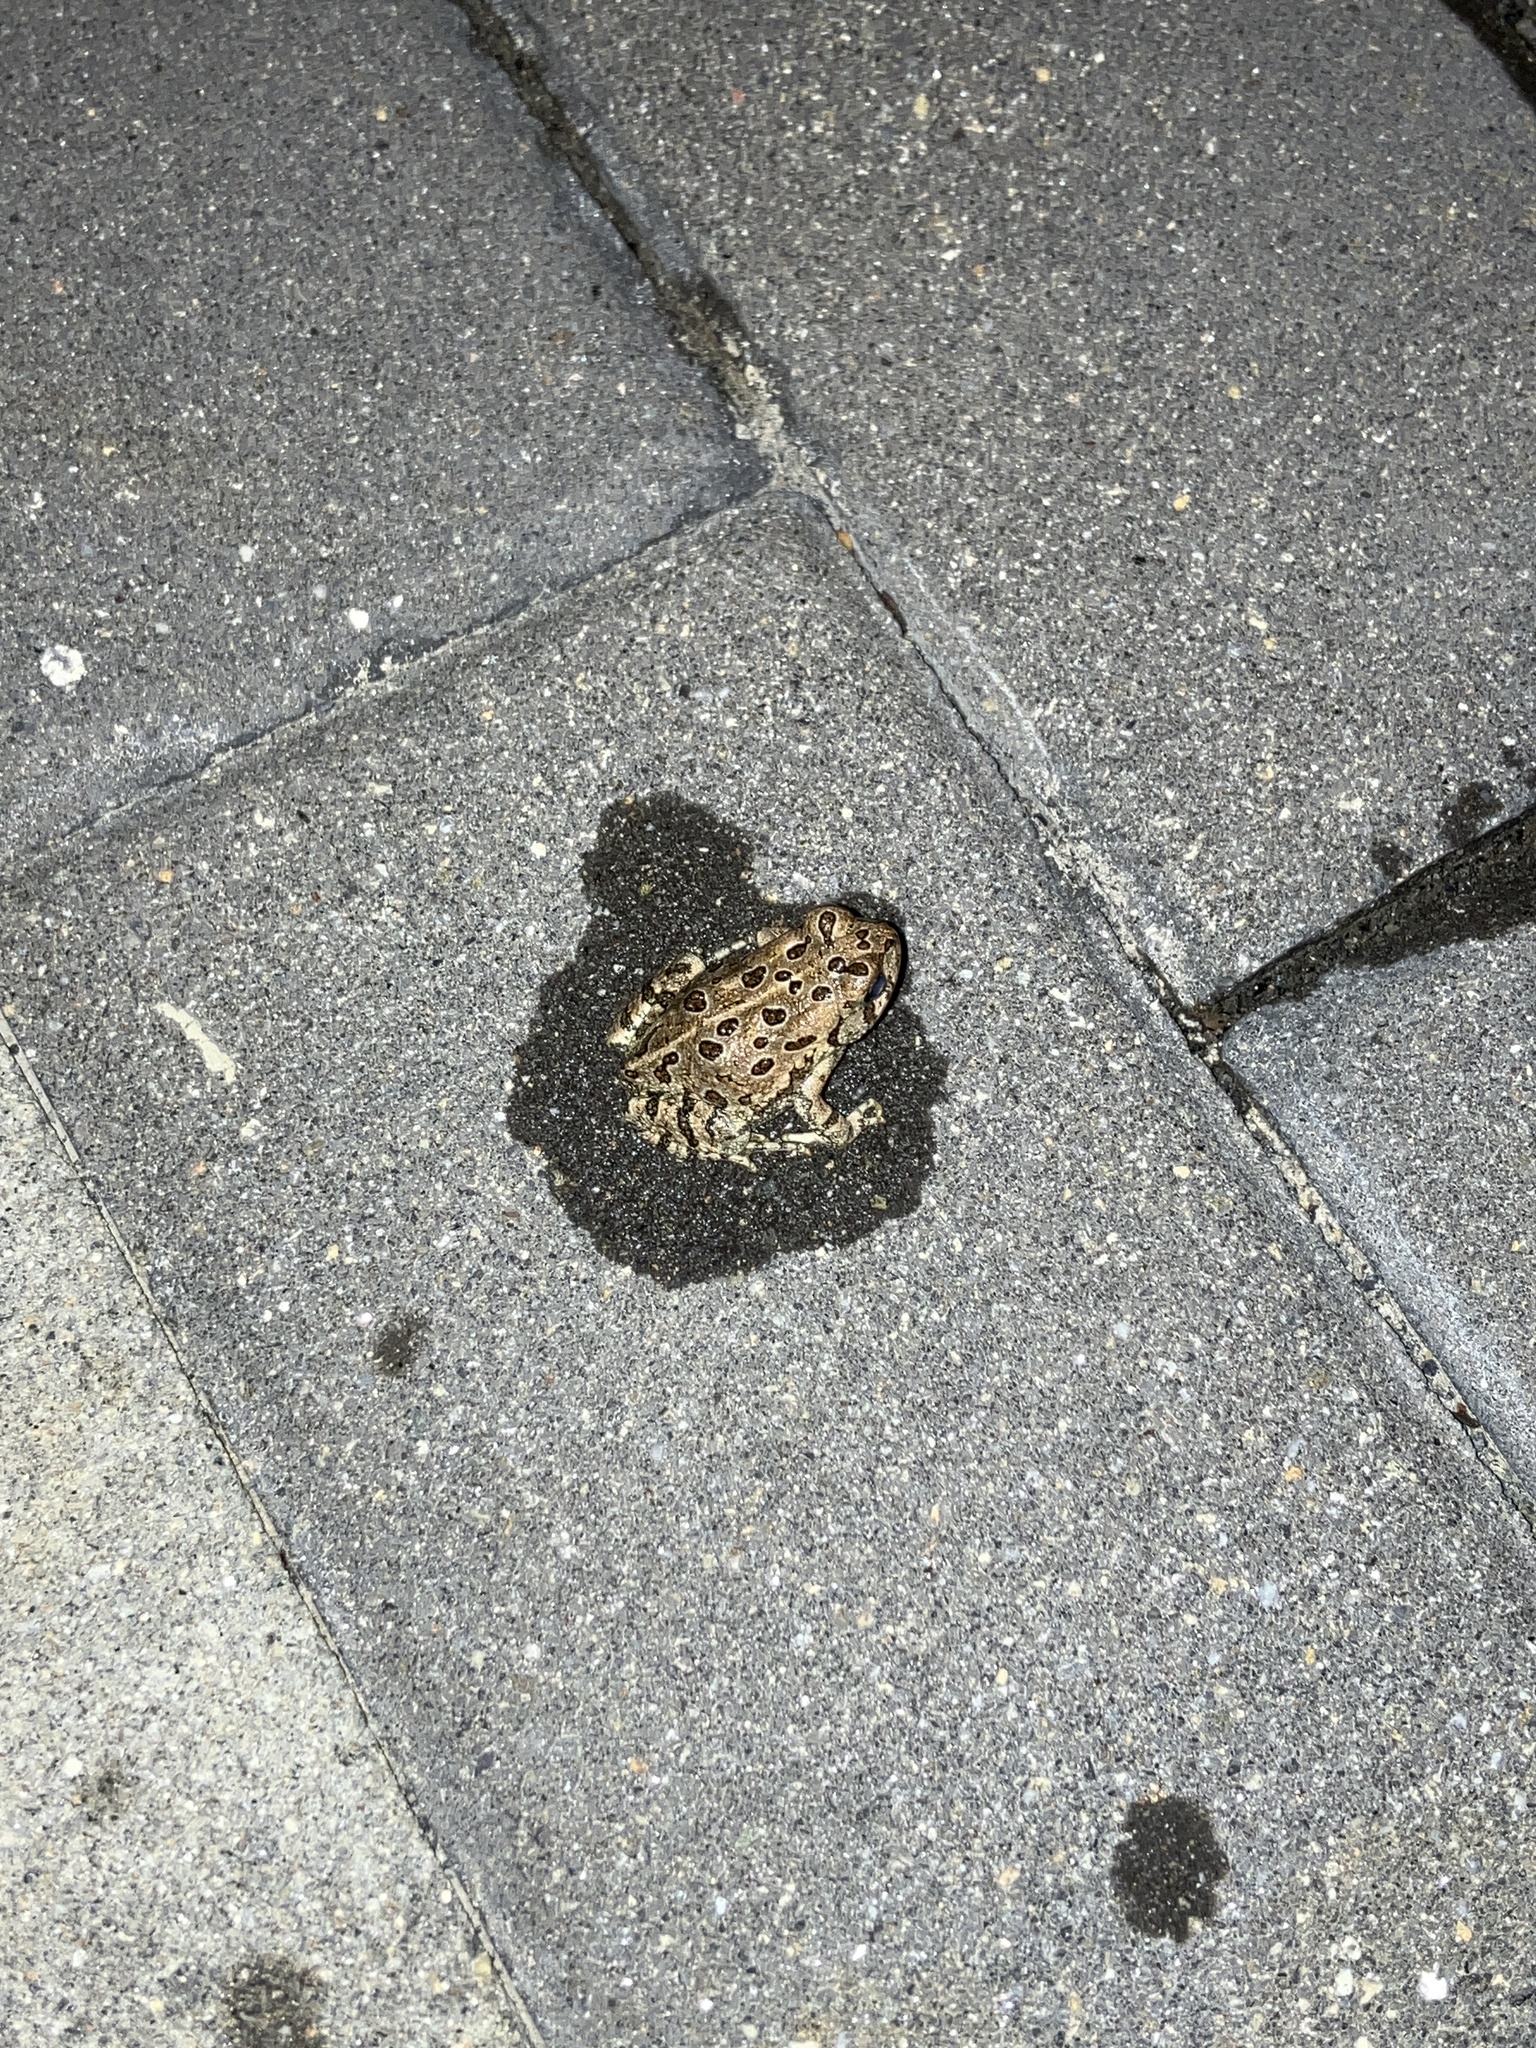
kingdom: Animalia
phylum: Chordata
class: Amphibia
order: Anura
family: Bufonidae
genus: Anaxyrus
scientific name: Anaxyrus fowleri
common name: Fowler's toad
